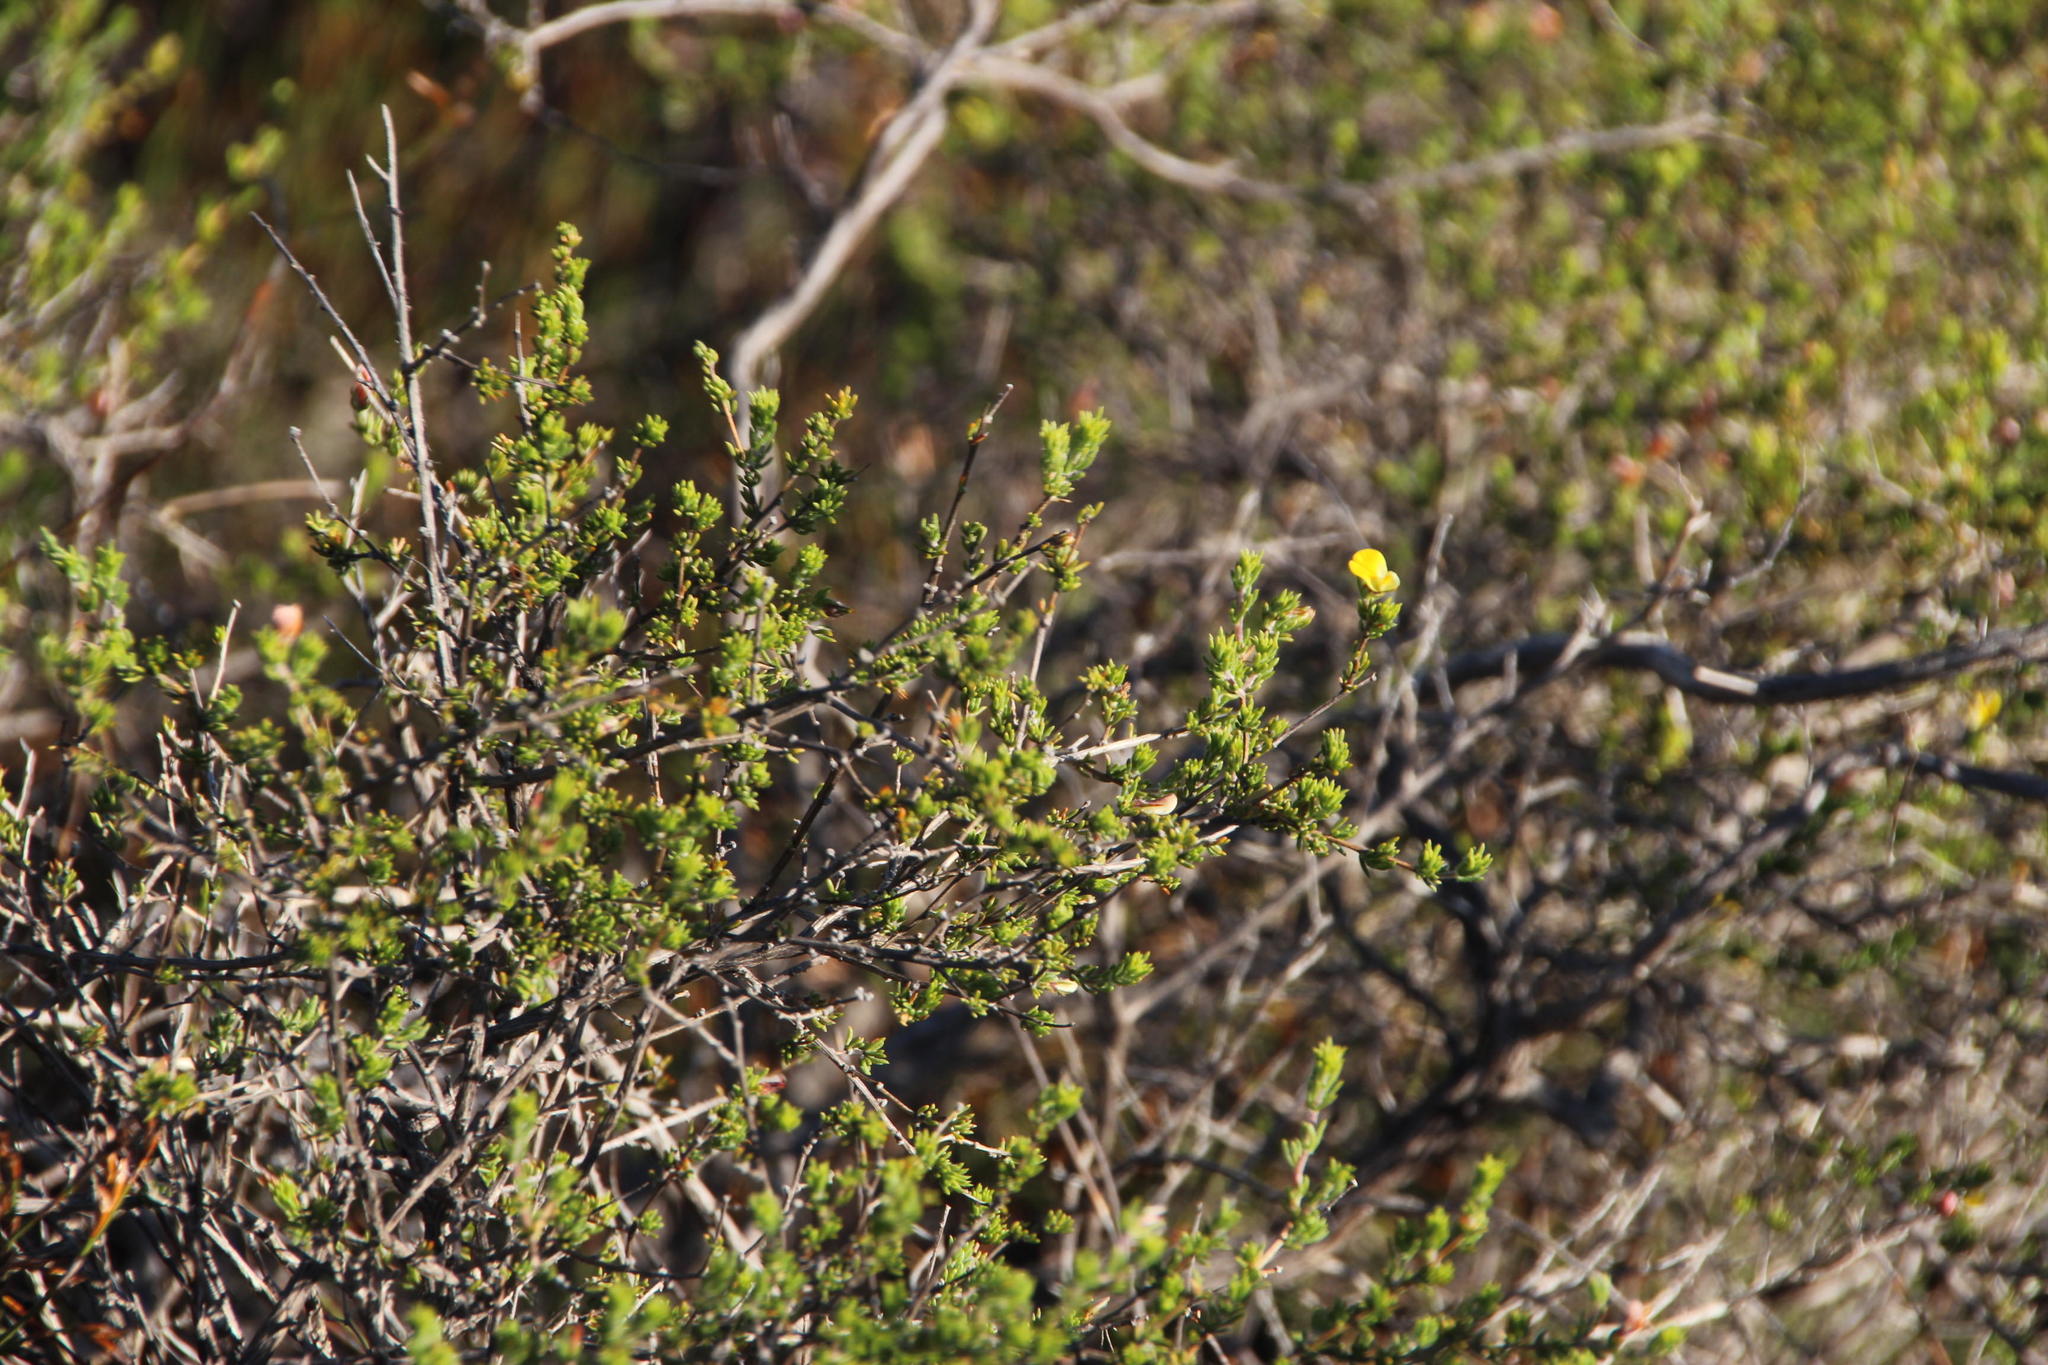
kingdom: Plantae
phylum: Tracheophyta
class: Magnoliopsida
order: Fabales
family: Fabaceae
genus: Aspalathus
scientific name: Aspalathus wittebergensis
